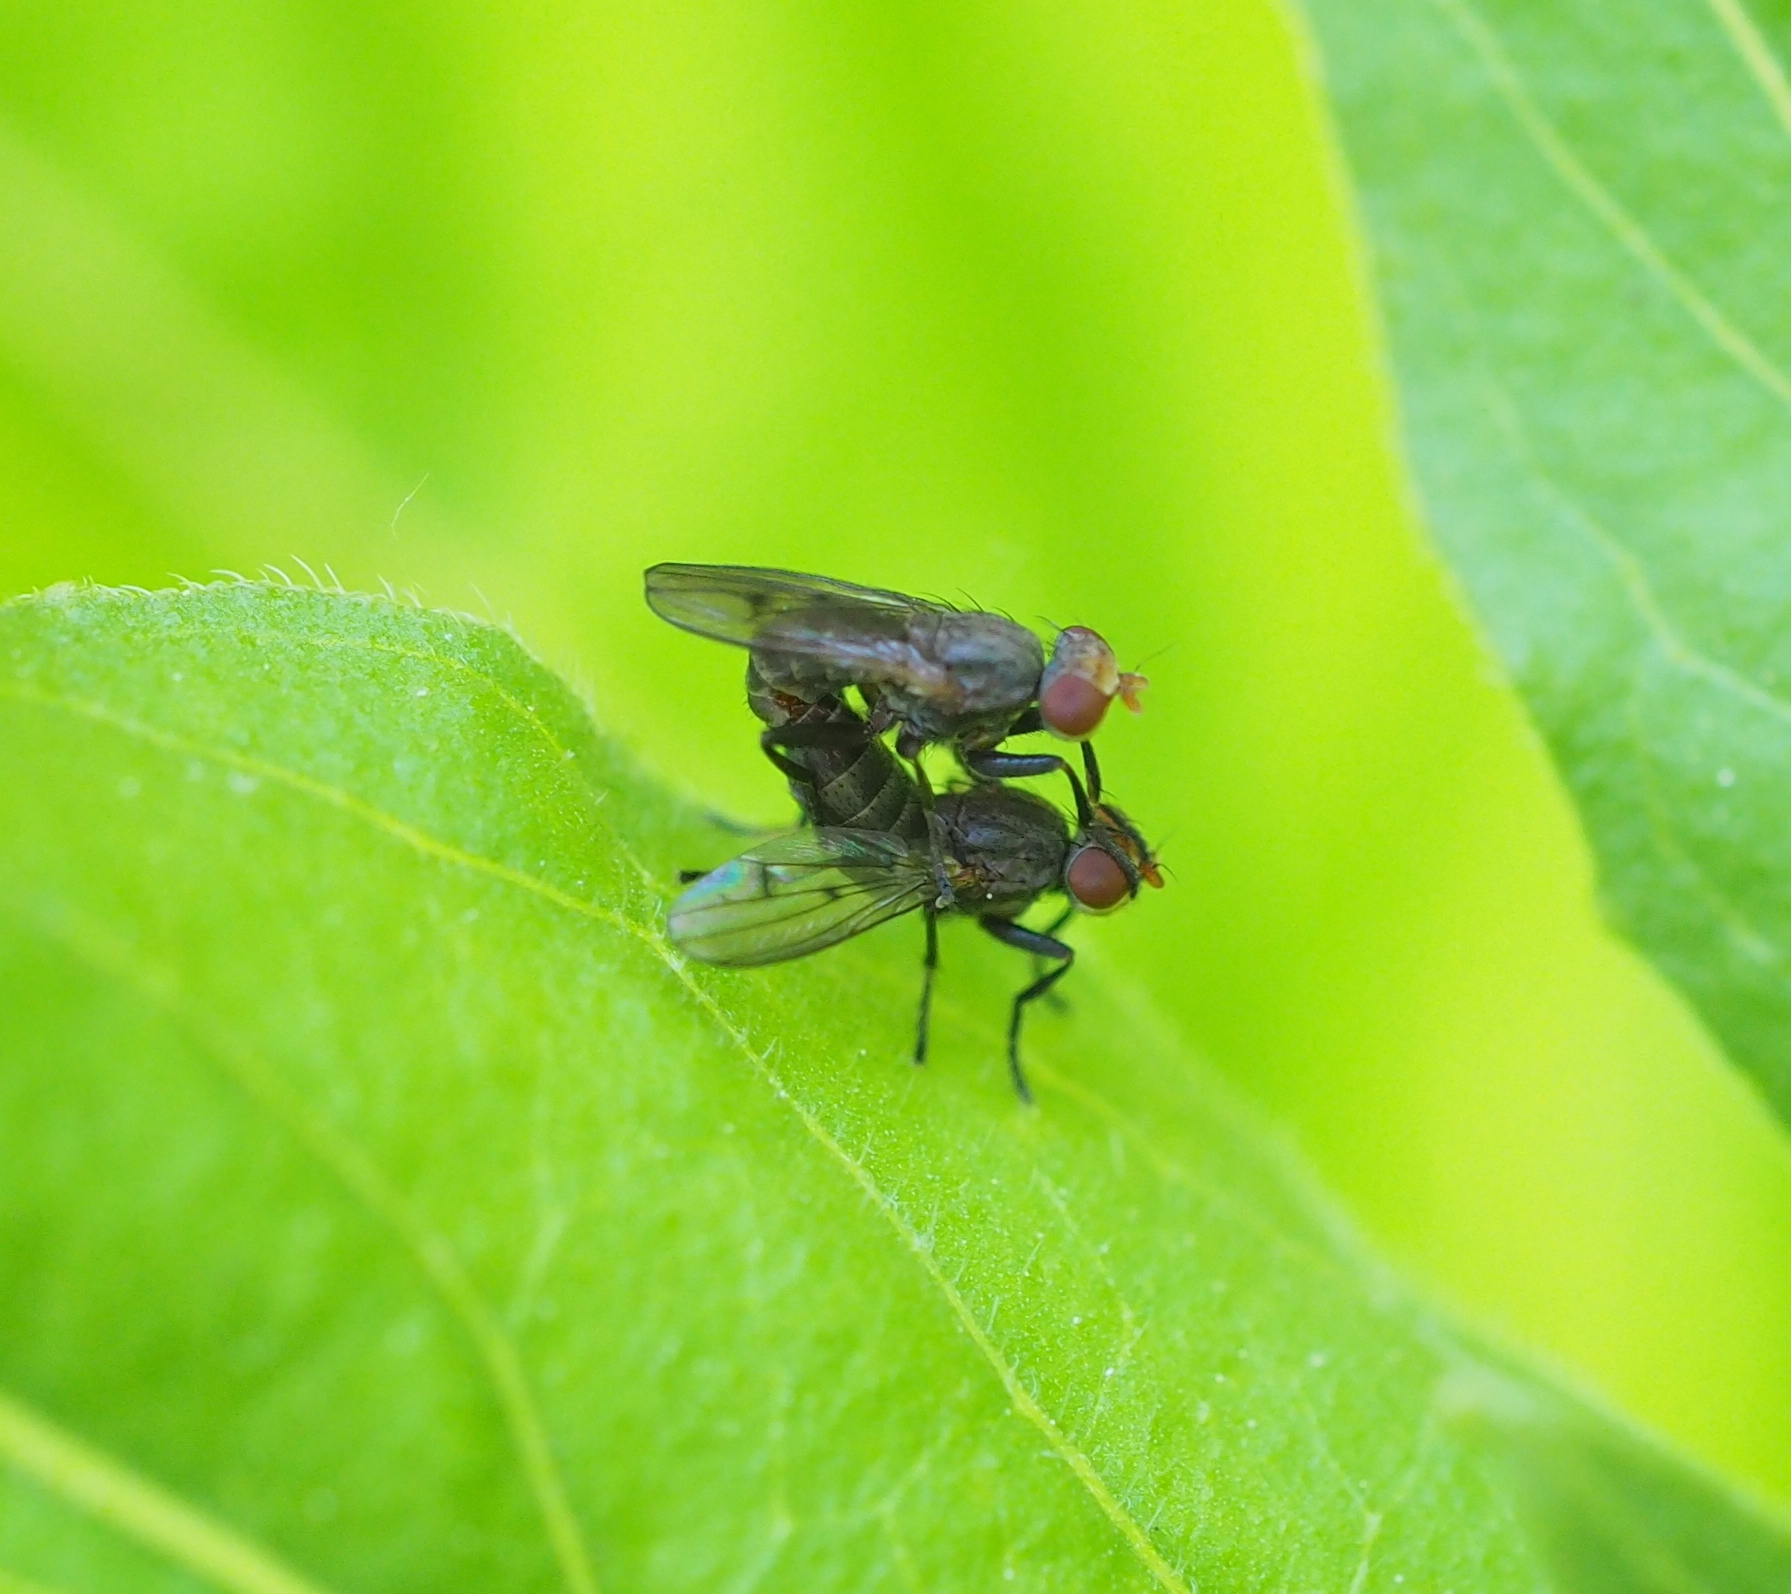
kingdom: Animalia
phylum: Arthropoda
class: Insecta
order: Diptera
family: Sciomyzidae
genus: Pherbellia
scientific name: Pherbellia griseola
